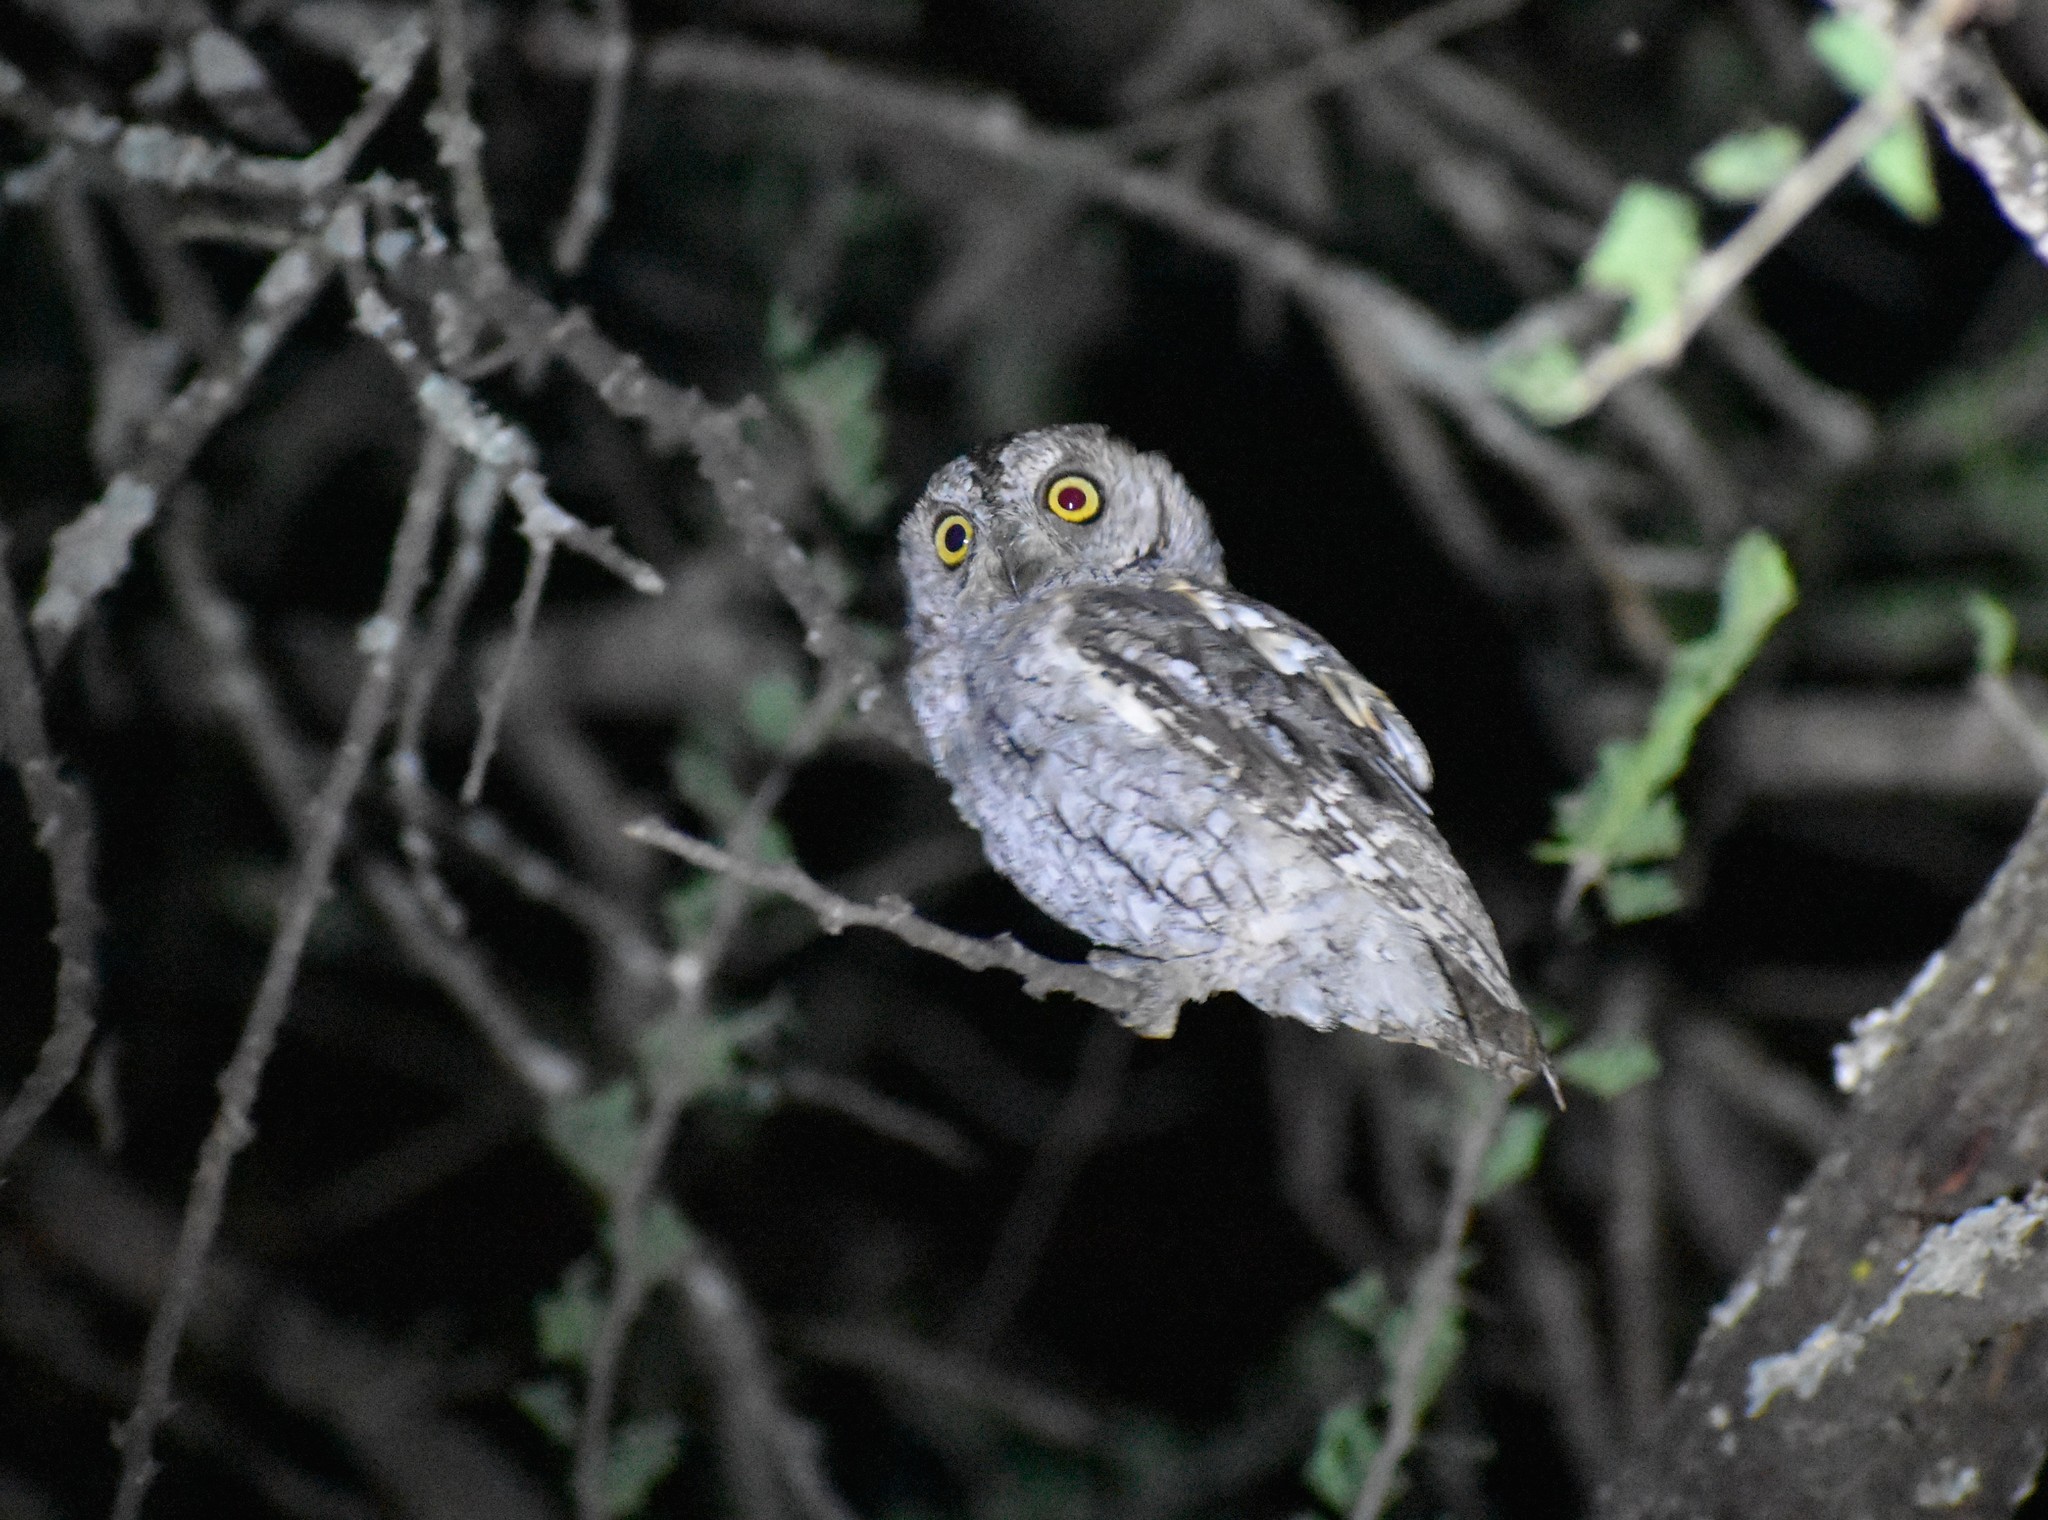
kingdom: Animalia
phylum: Chordata
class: Aves
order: Strigiformes
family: Strigidae
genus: Otus
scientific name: Otus senegalensis
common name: African scops owl
